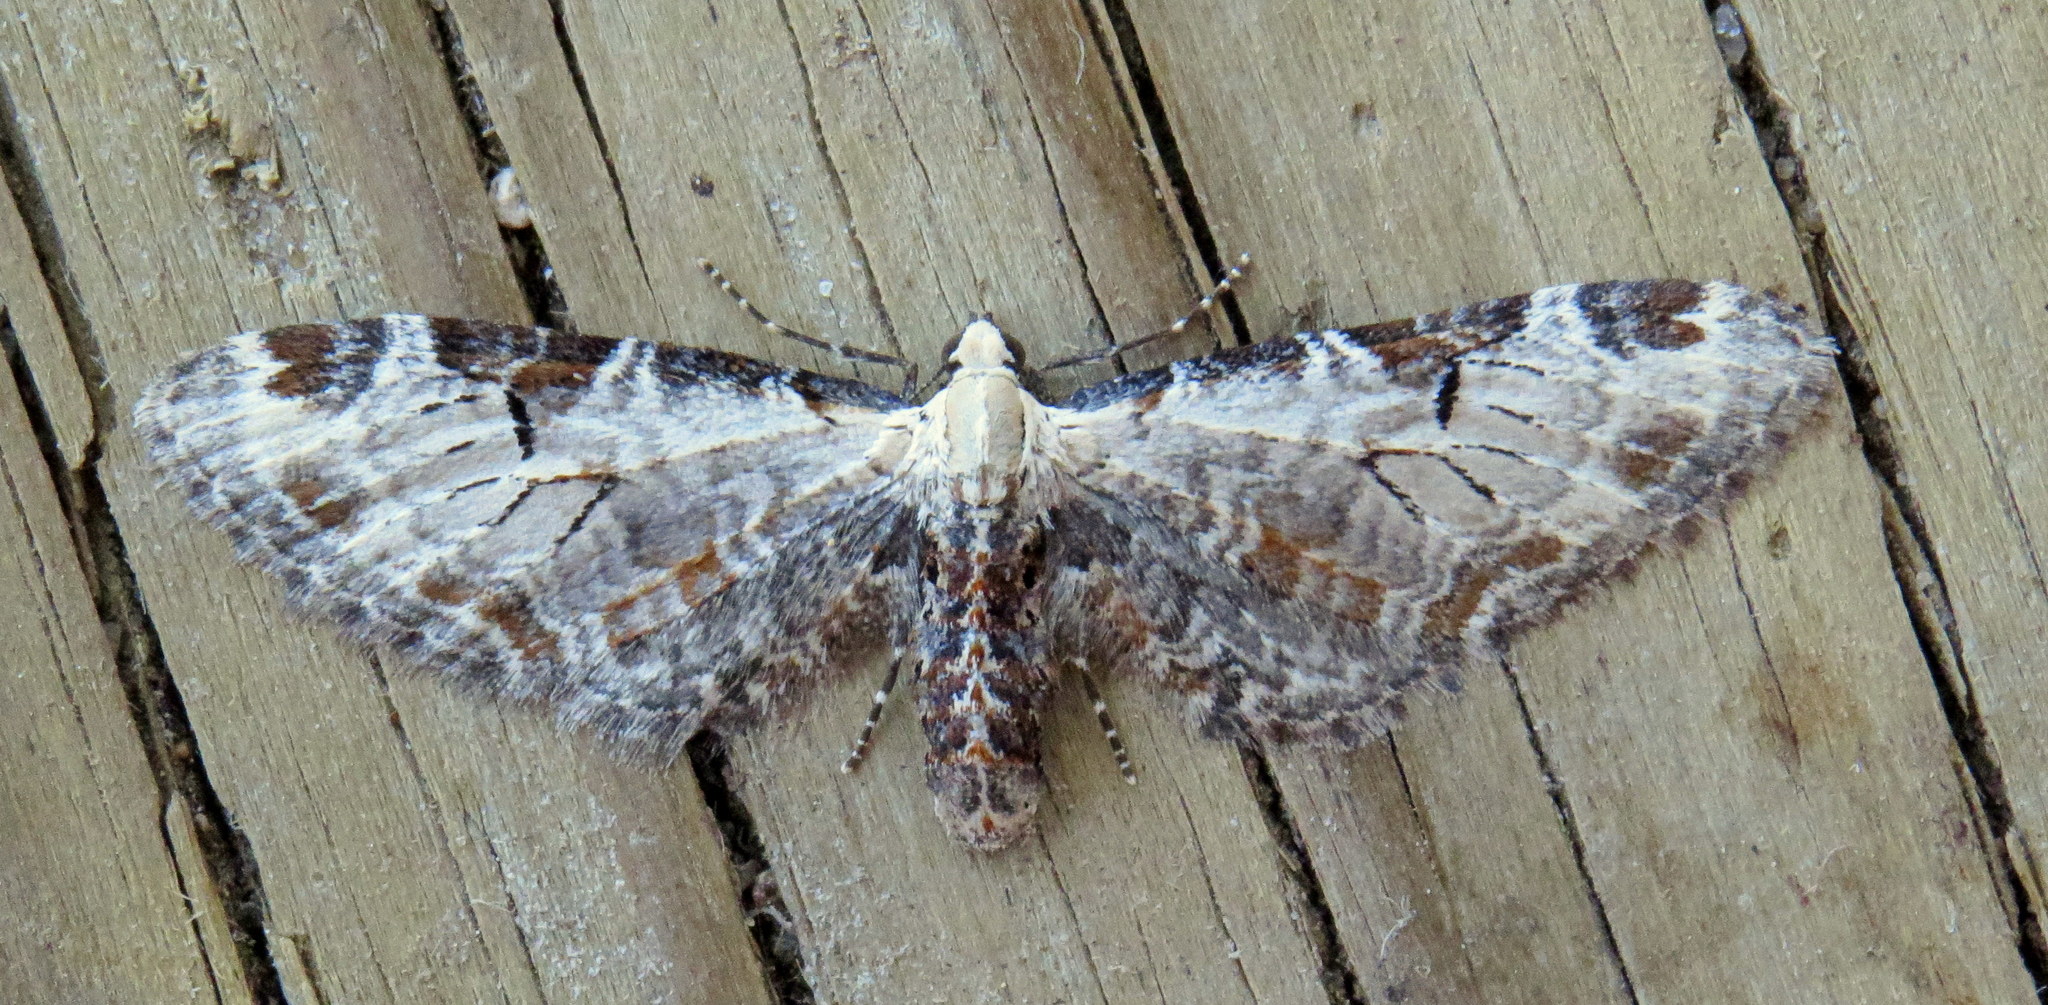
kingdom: Animalia
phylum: Arthropoda
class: Insecta
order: Lepidoptera
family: Geometridae
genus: Eupithecia
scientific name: Eupithecia ravocostaliata
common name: Great varigated pug
